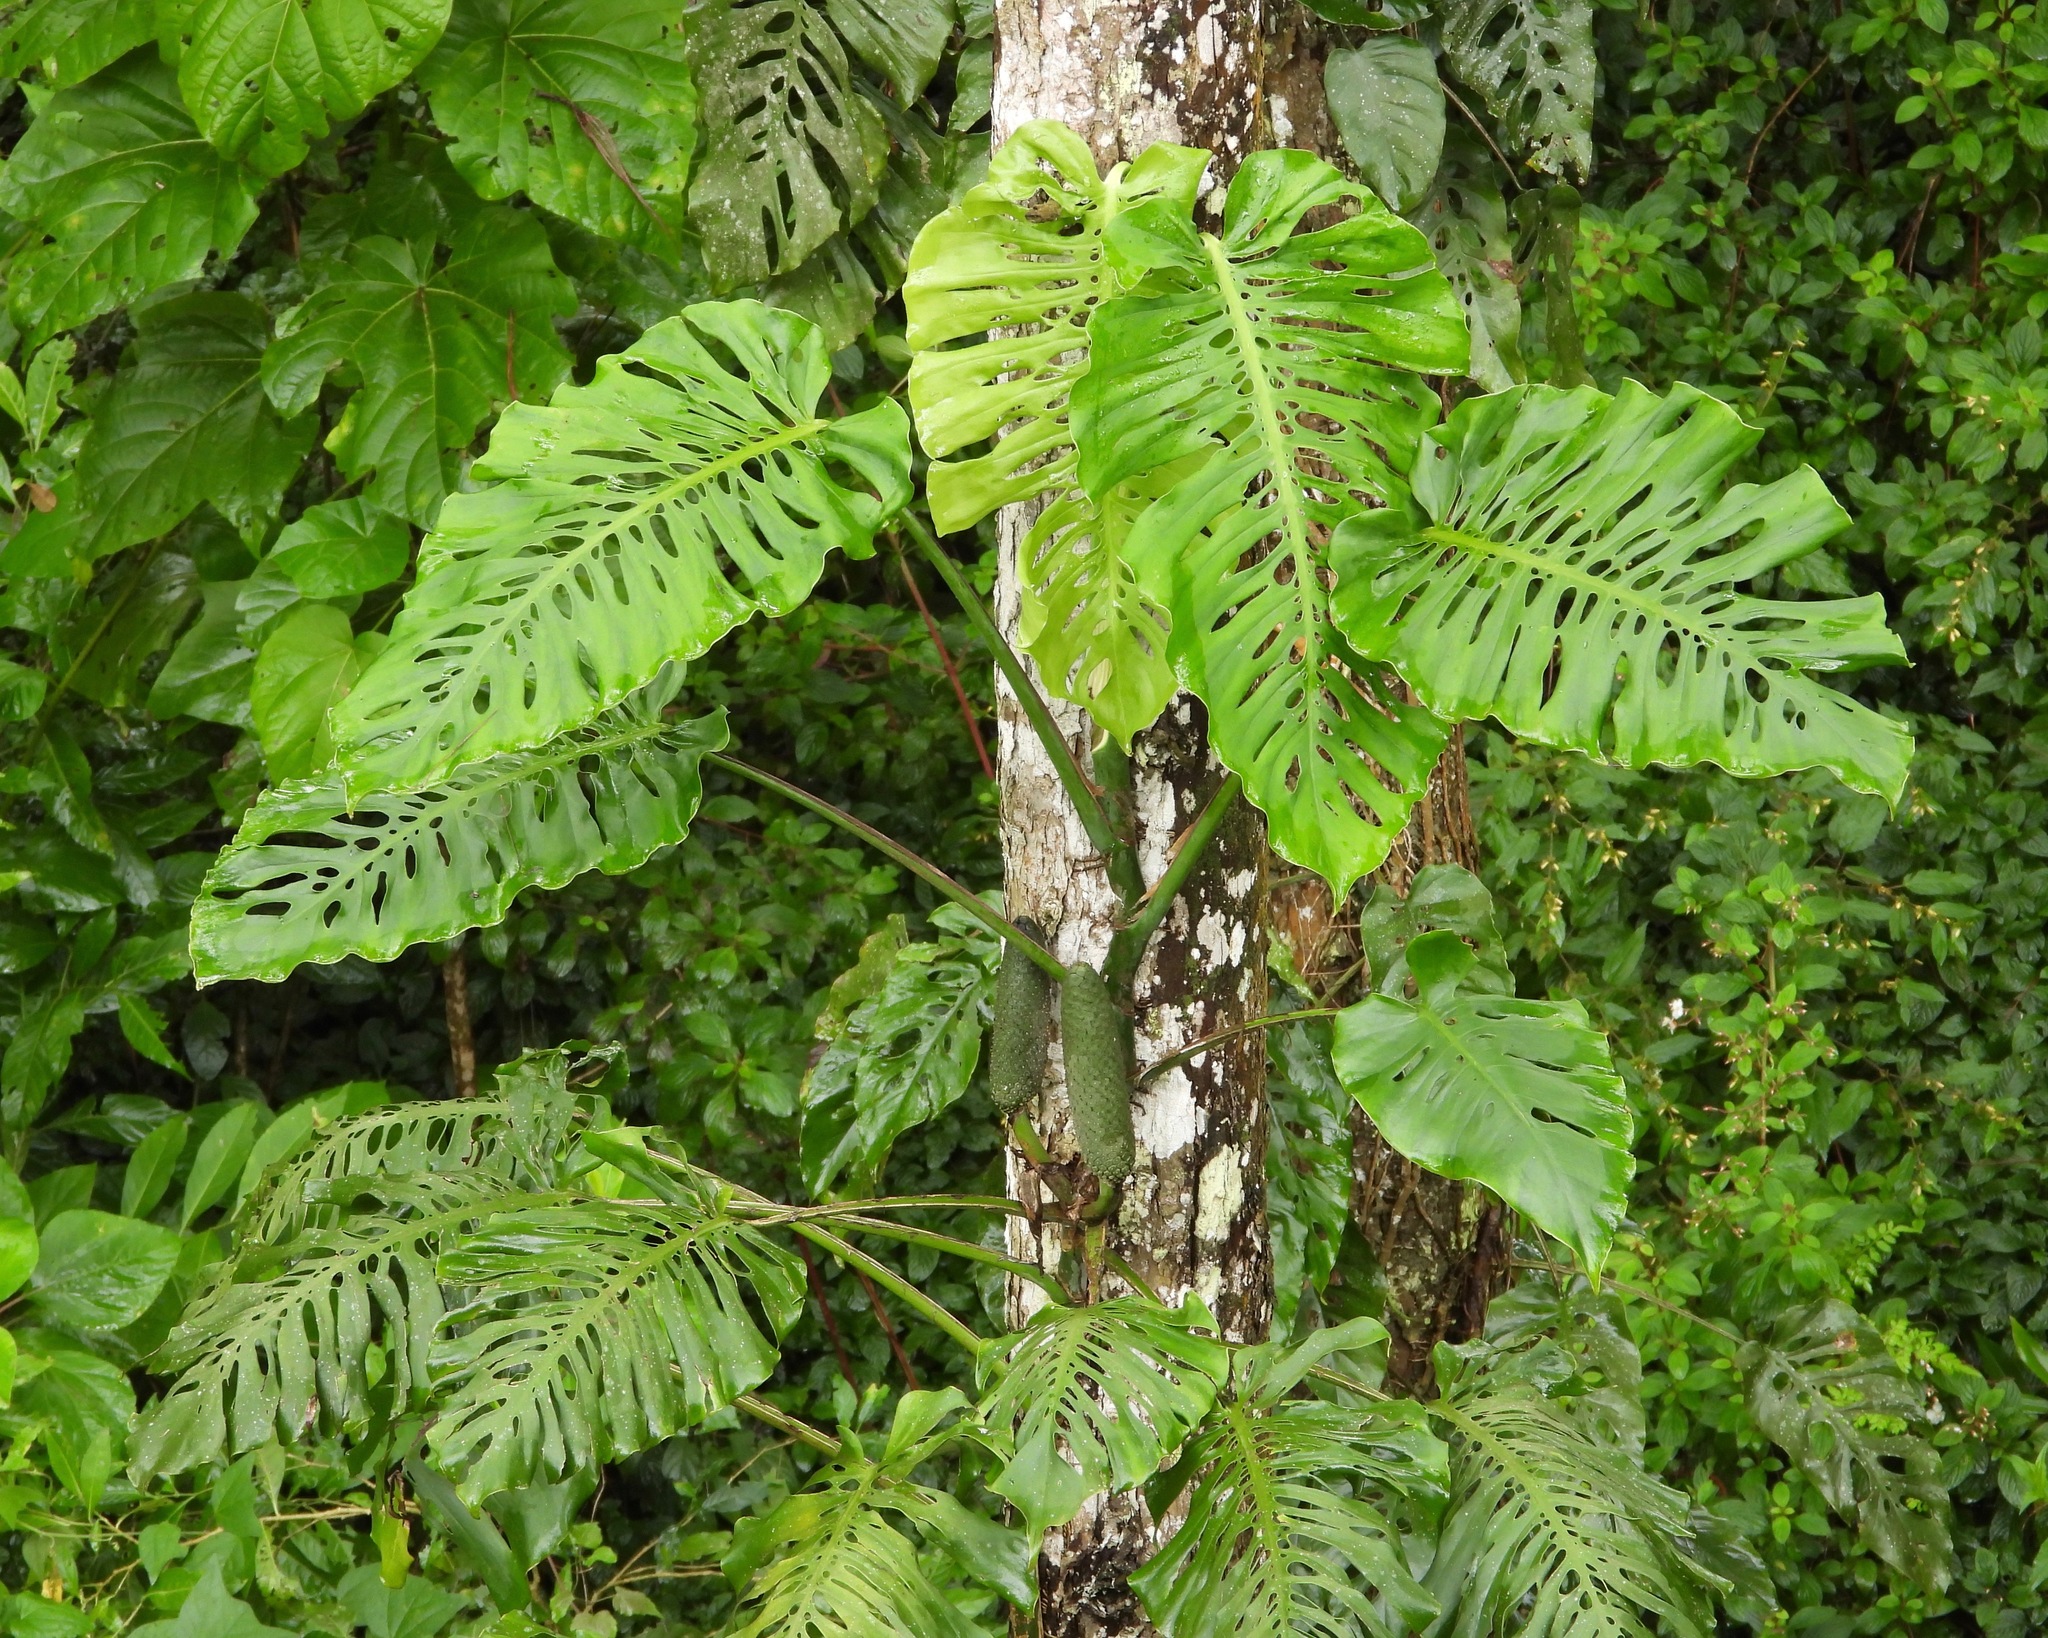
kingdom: Plantae
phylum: Tracheophyta
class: Liliopsida
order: Alismatales
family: Araceae
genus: Monstera
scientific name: Monstera siltepecana
